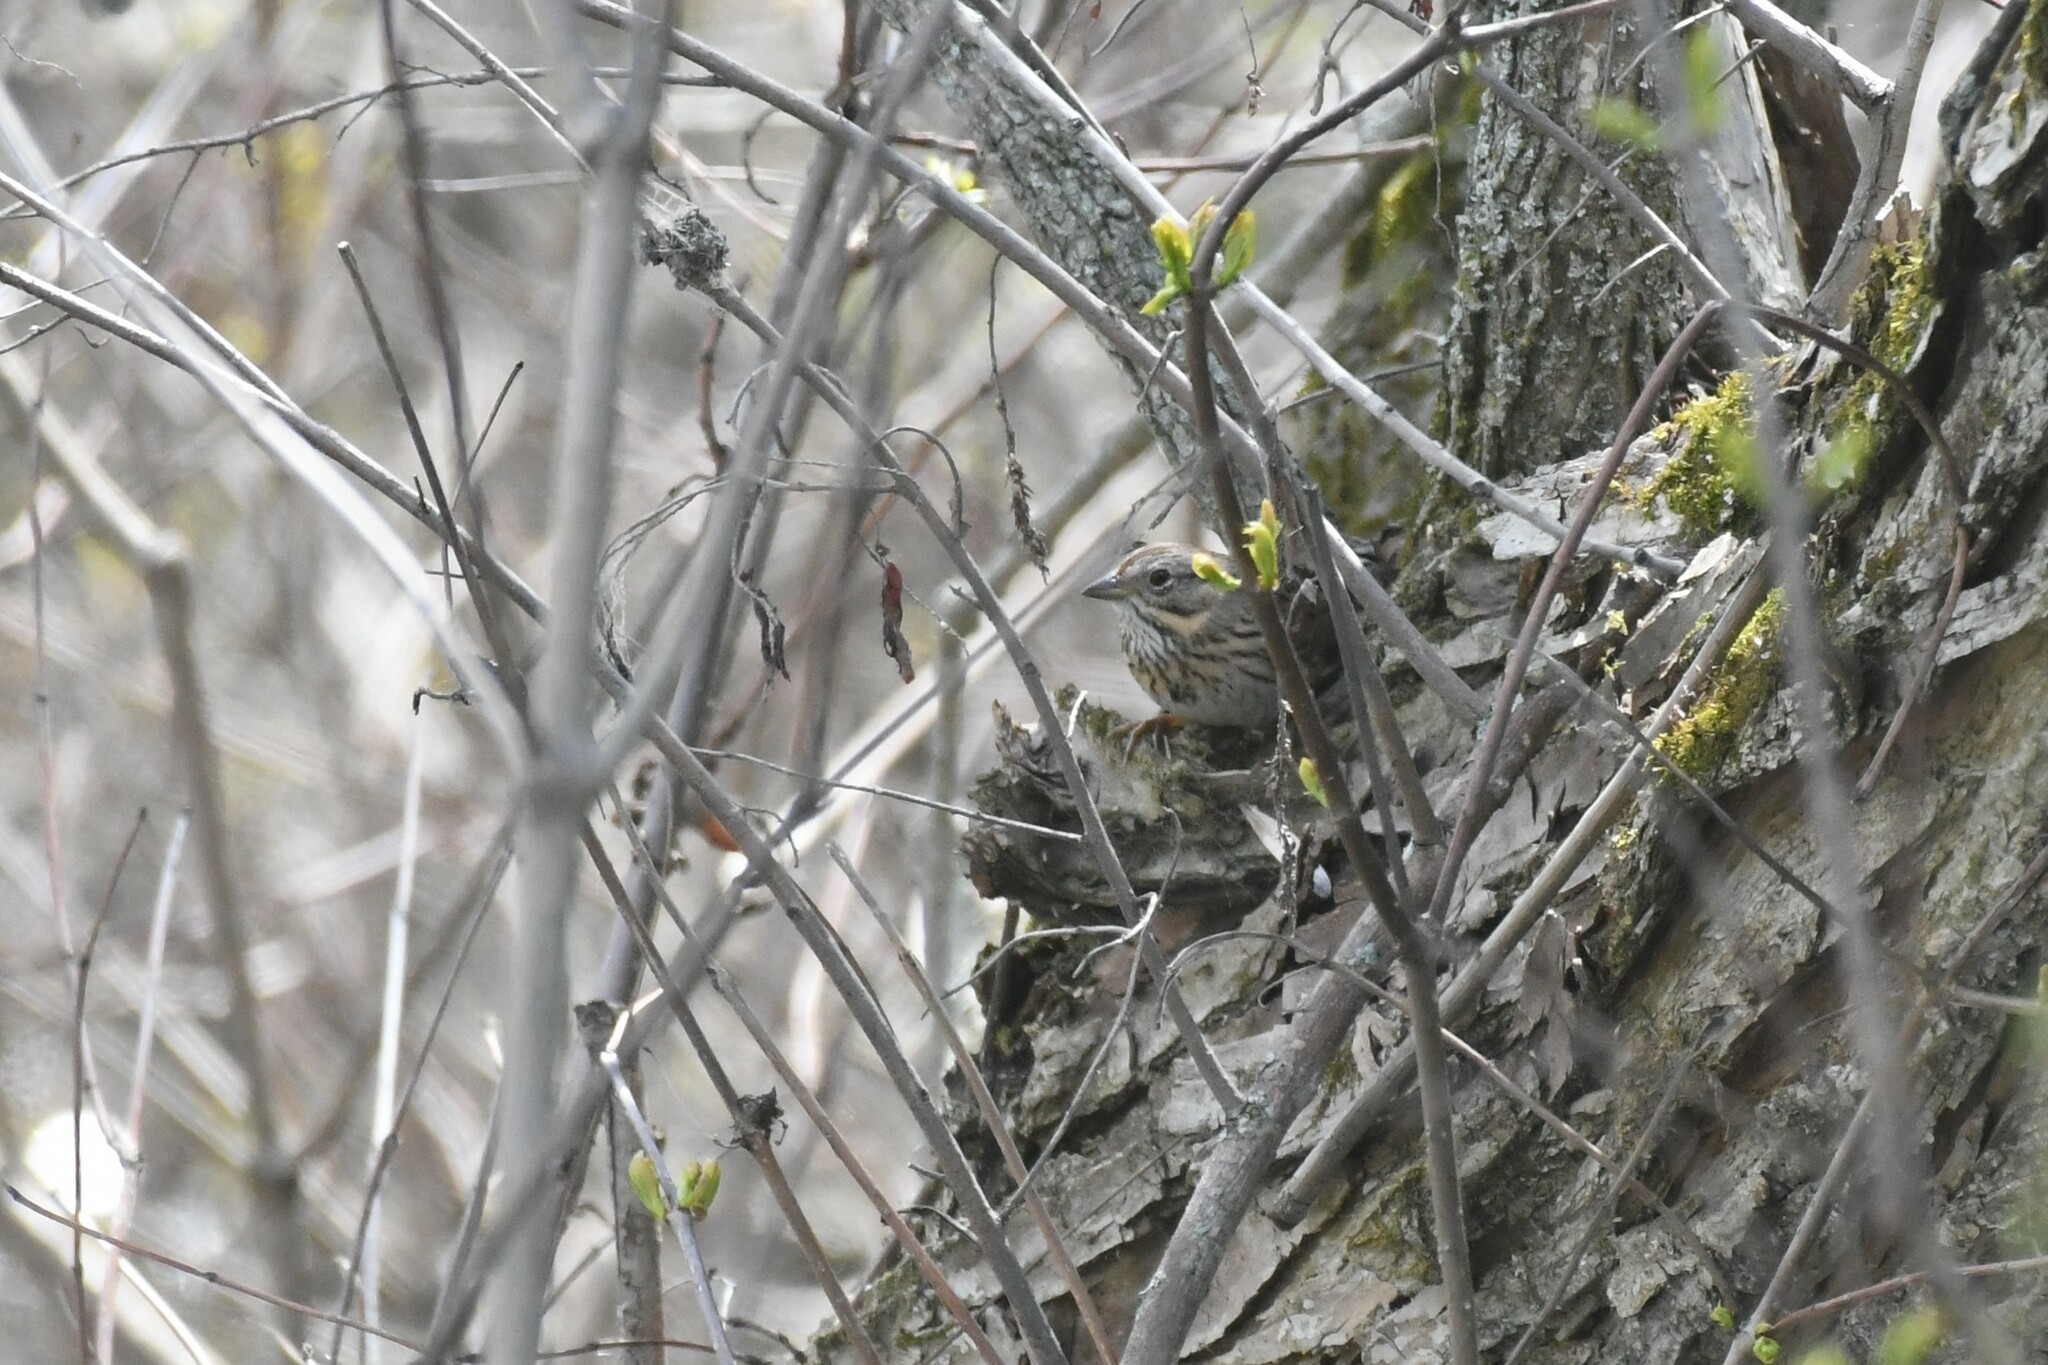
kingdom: Animalia
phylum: Chordata
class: Aves
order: Passeriformes
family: Passerellidae
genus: Melospiza
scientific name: Melospiza lincolnii
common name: Lincoln's sparrow
